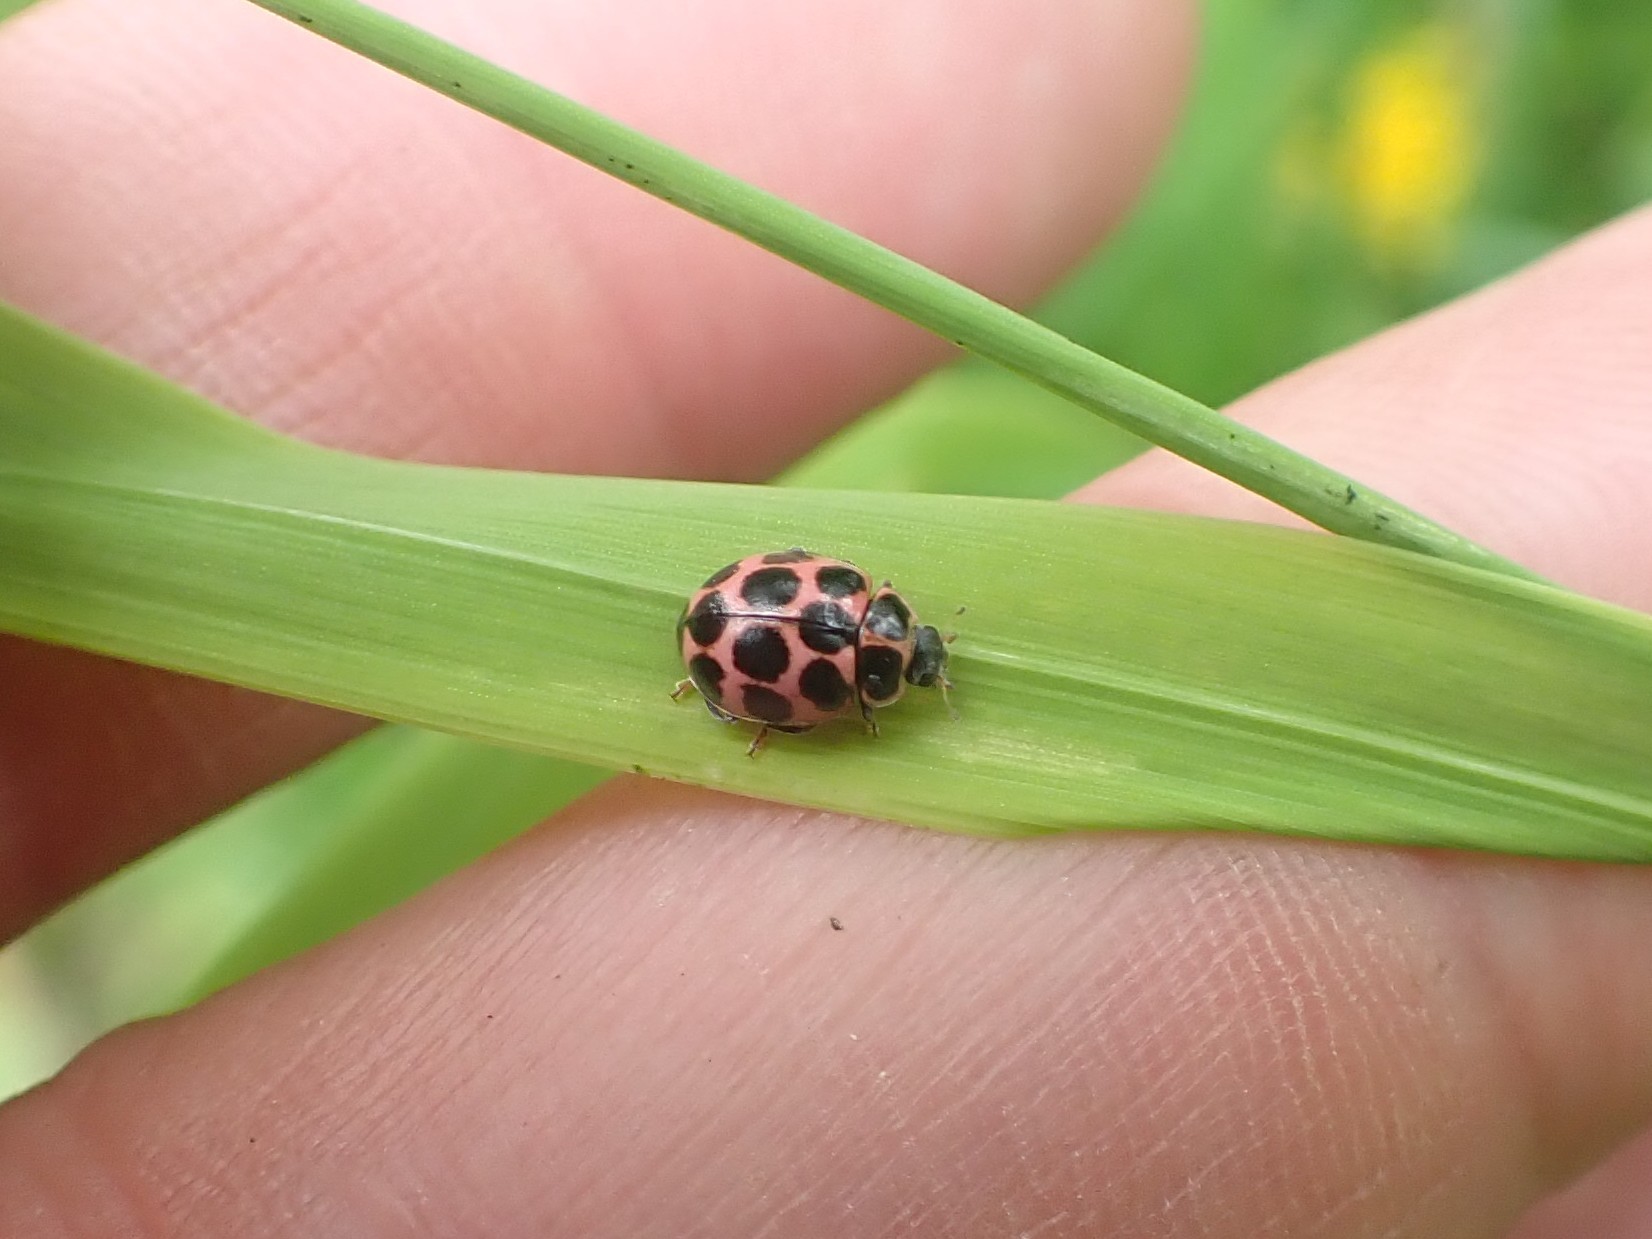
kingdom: Animalia
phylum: Arthropoda
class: Insecta
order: Coleoptera
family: Coccinellidae
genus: Calvia
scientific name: Calvia quatuordecimguttata
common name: Cream-spot ladybird
